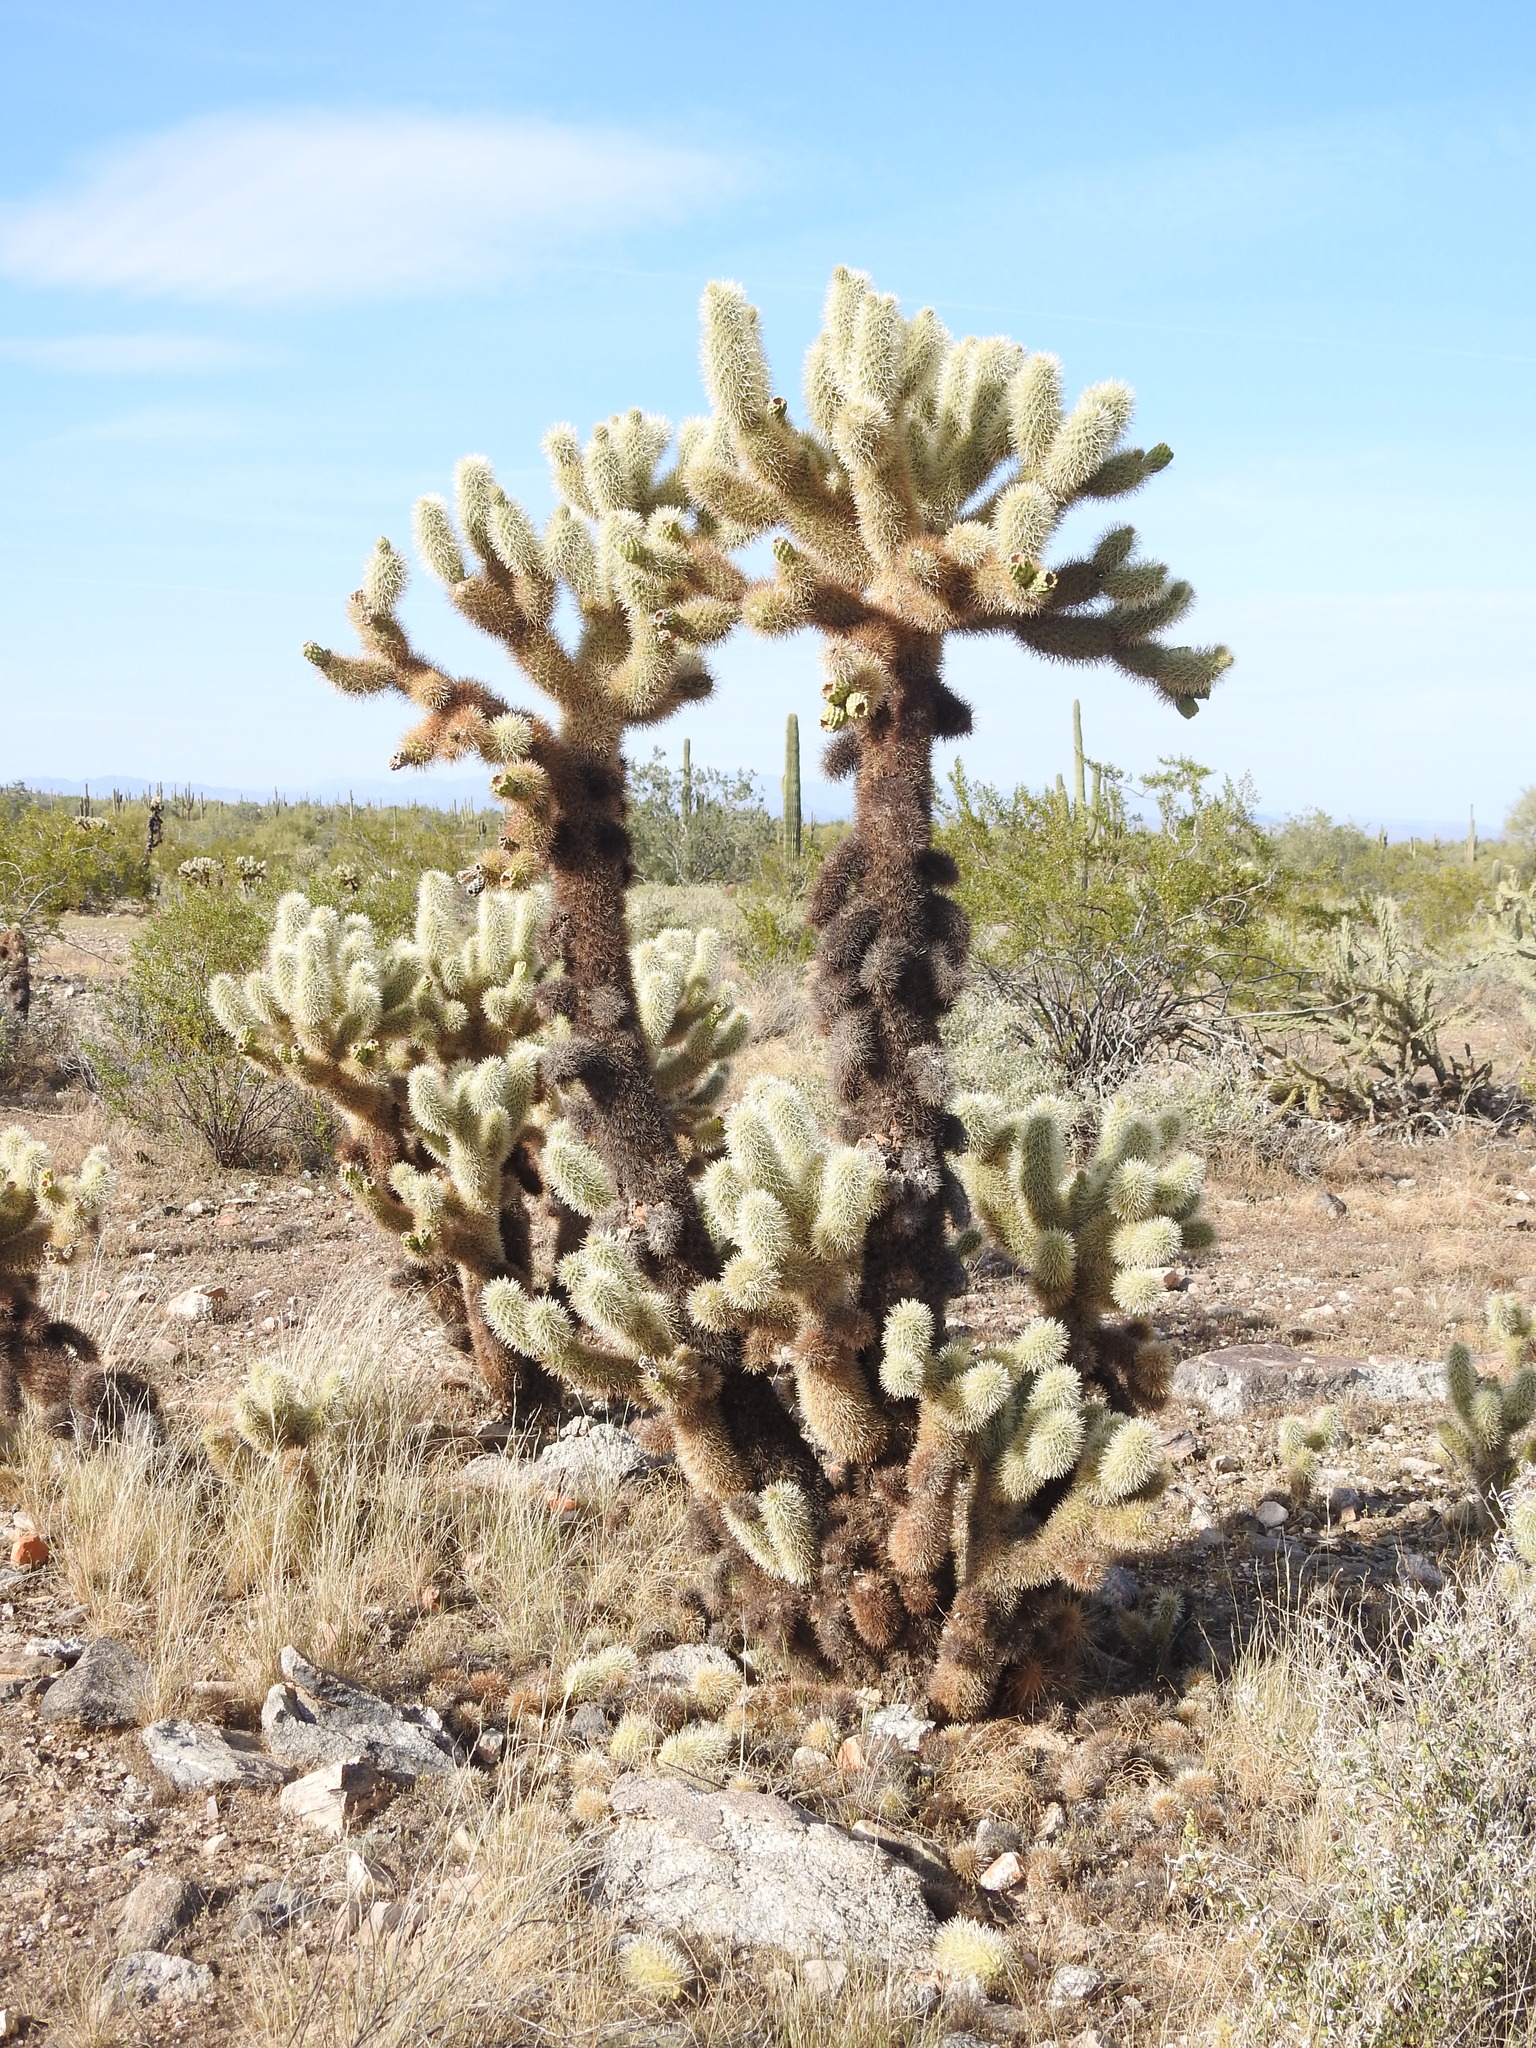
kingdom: Plantae
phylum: Tracheophyta
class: Magnoliopsida
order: Caryophyllales
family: Cactaceae
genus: Cylindropuntia
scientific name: Cylindropuntia fosbergii
